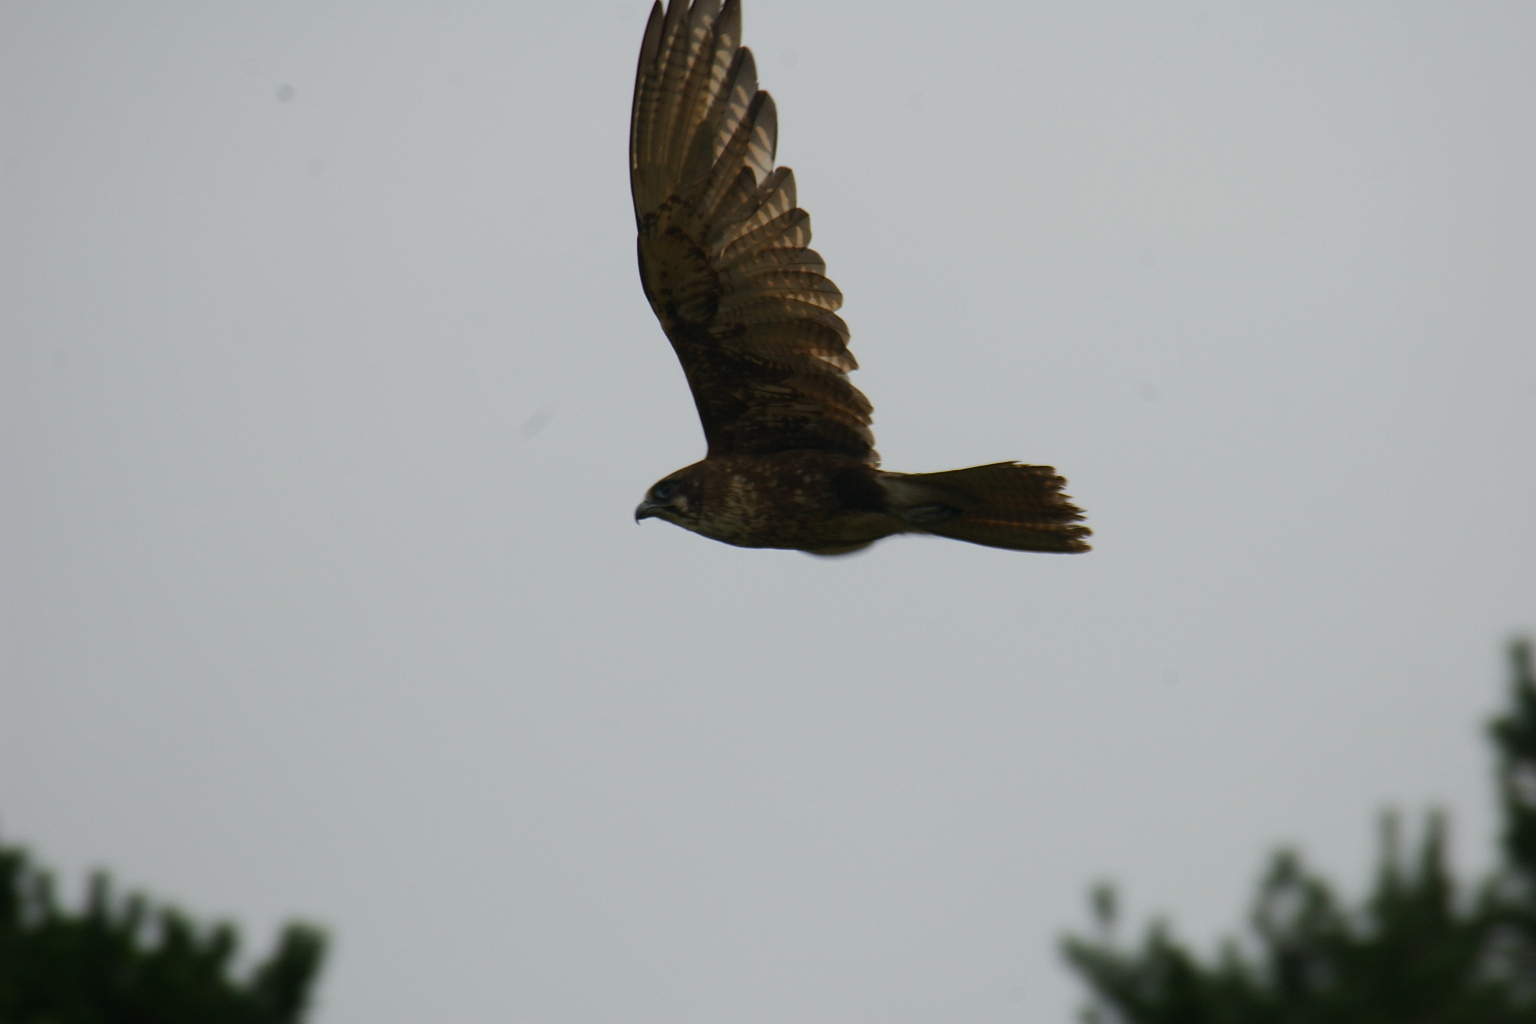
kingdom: Animalia
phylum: Chordata
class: Aves
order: Falconiformes
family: Falconidae
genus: Falco
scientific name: Falco berigora
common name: Brown falcon
